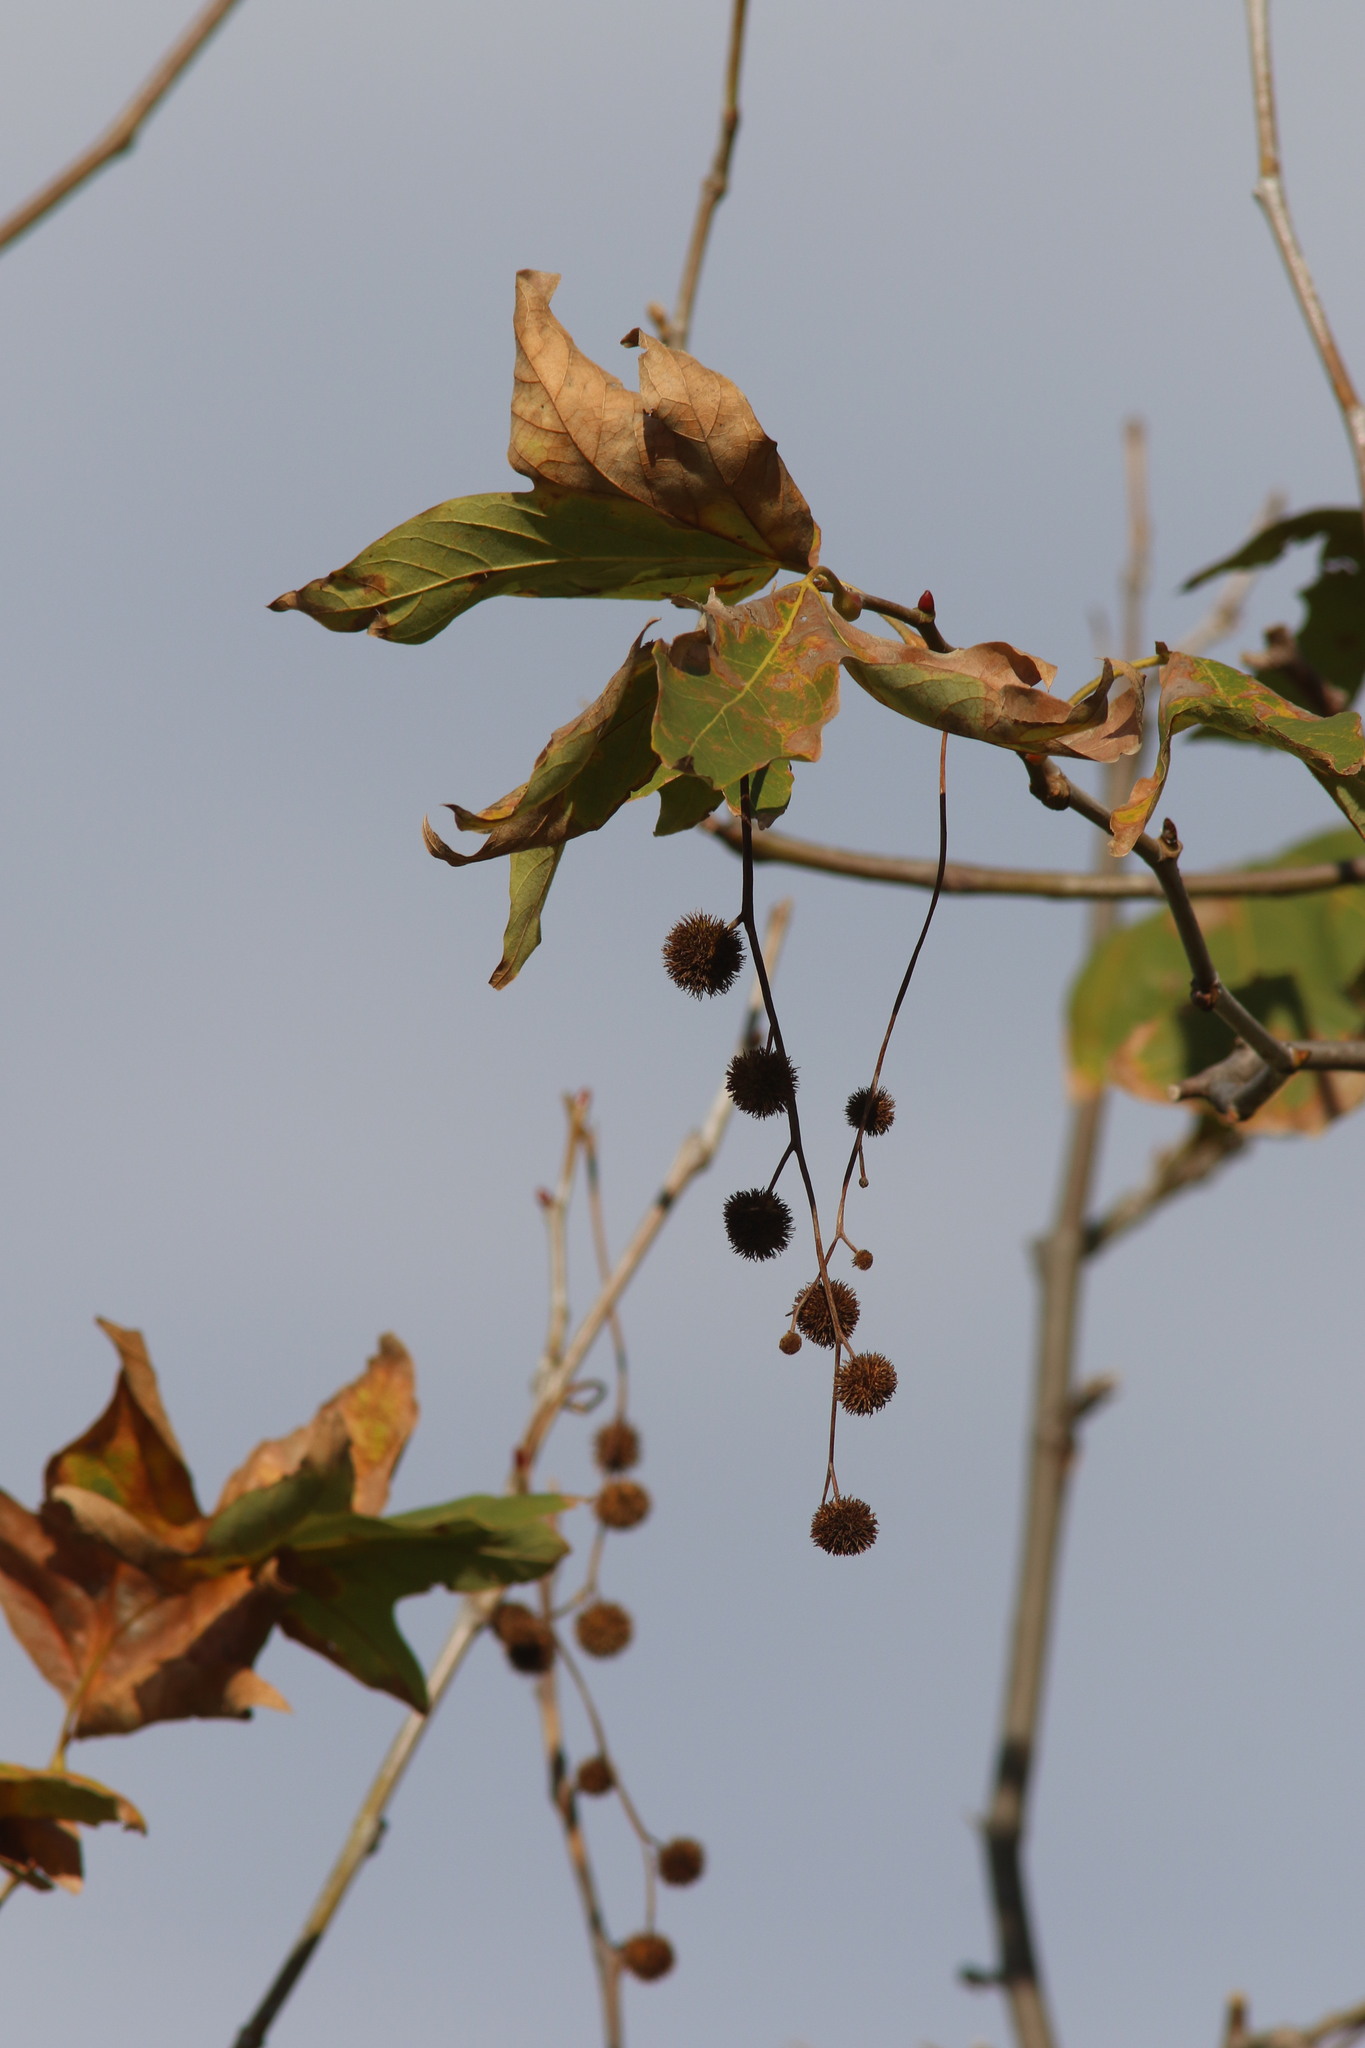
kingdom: Plantae
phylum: Tracheophyta
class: Magnoliopsida
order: Proteales
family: Platanaceae
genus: Platanus
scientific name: Platanus racemosa
